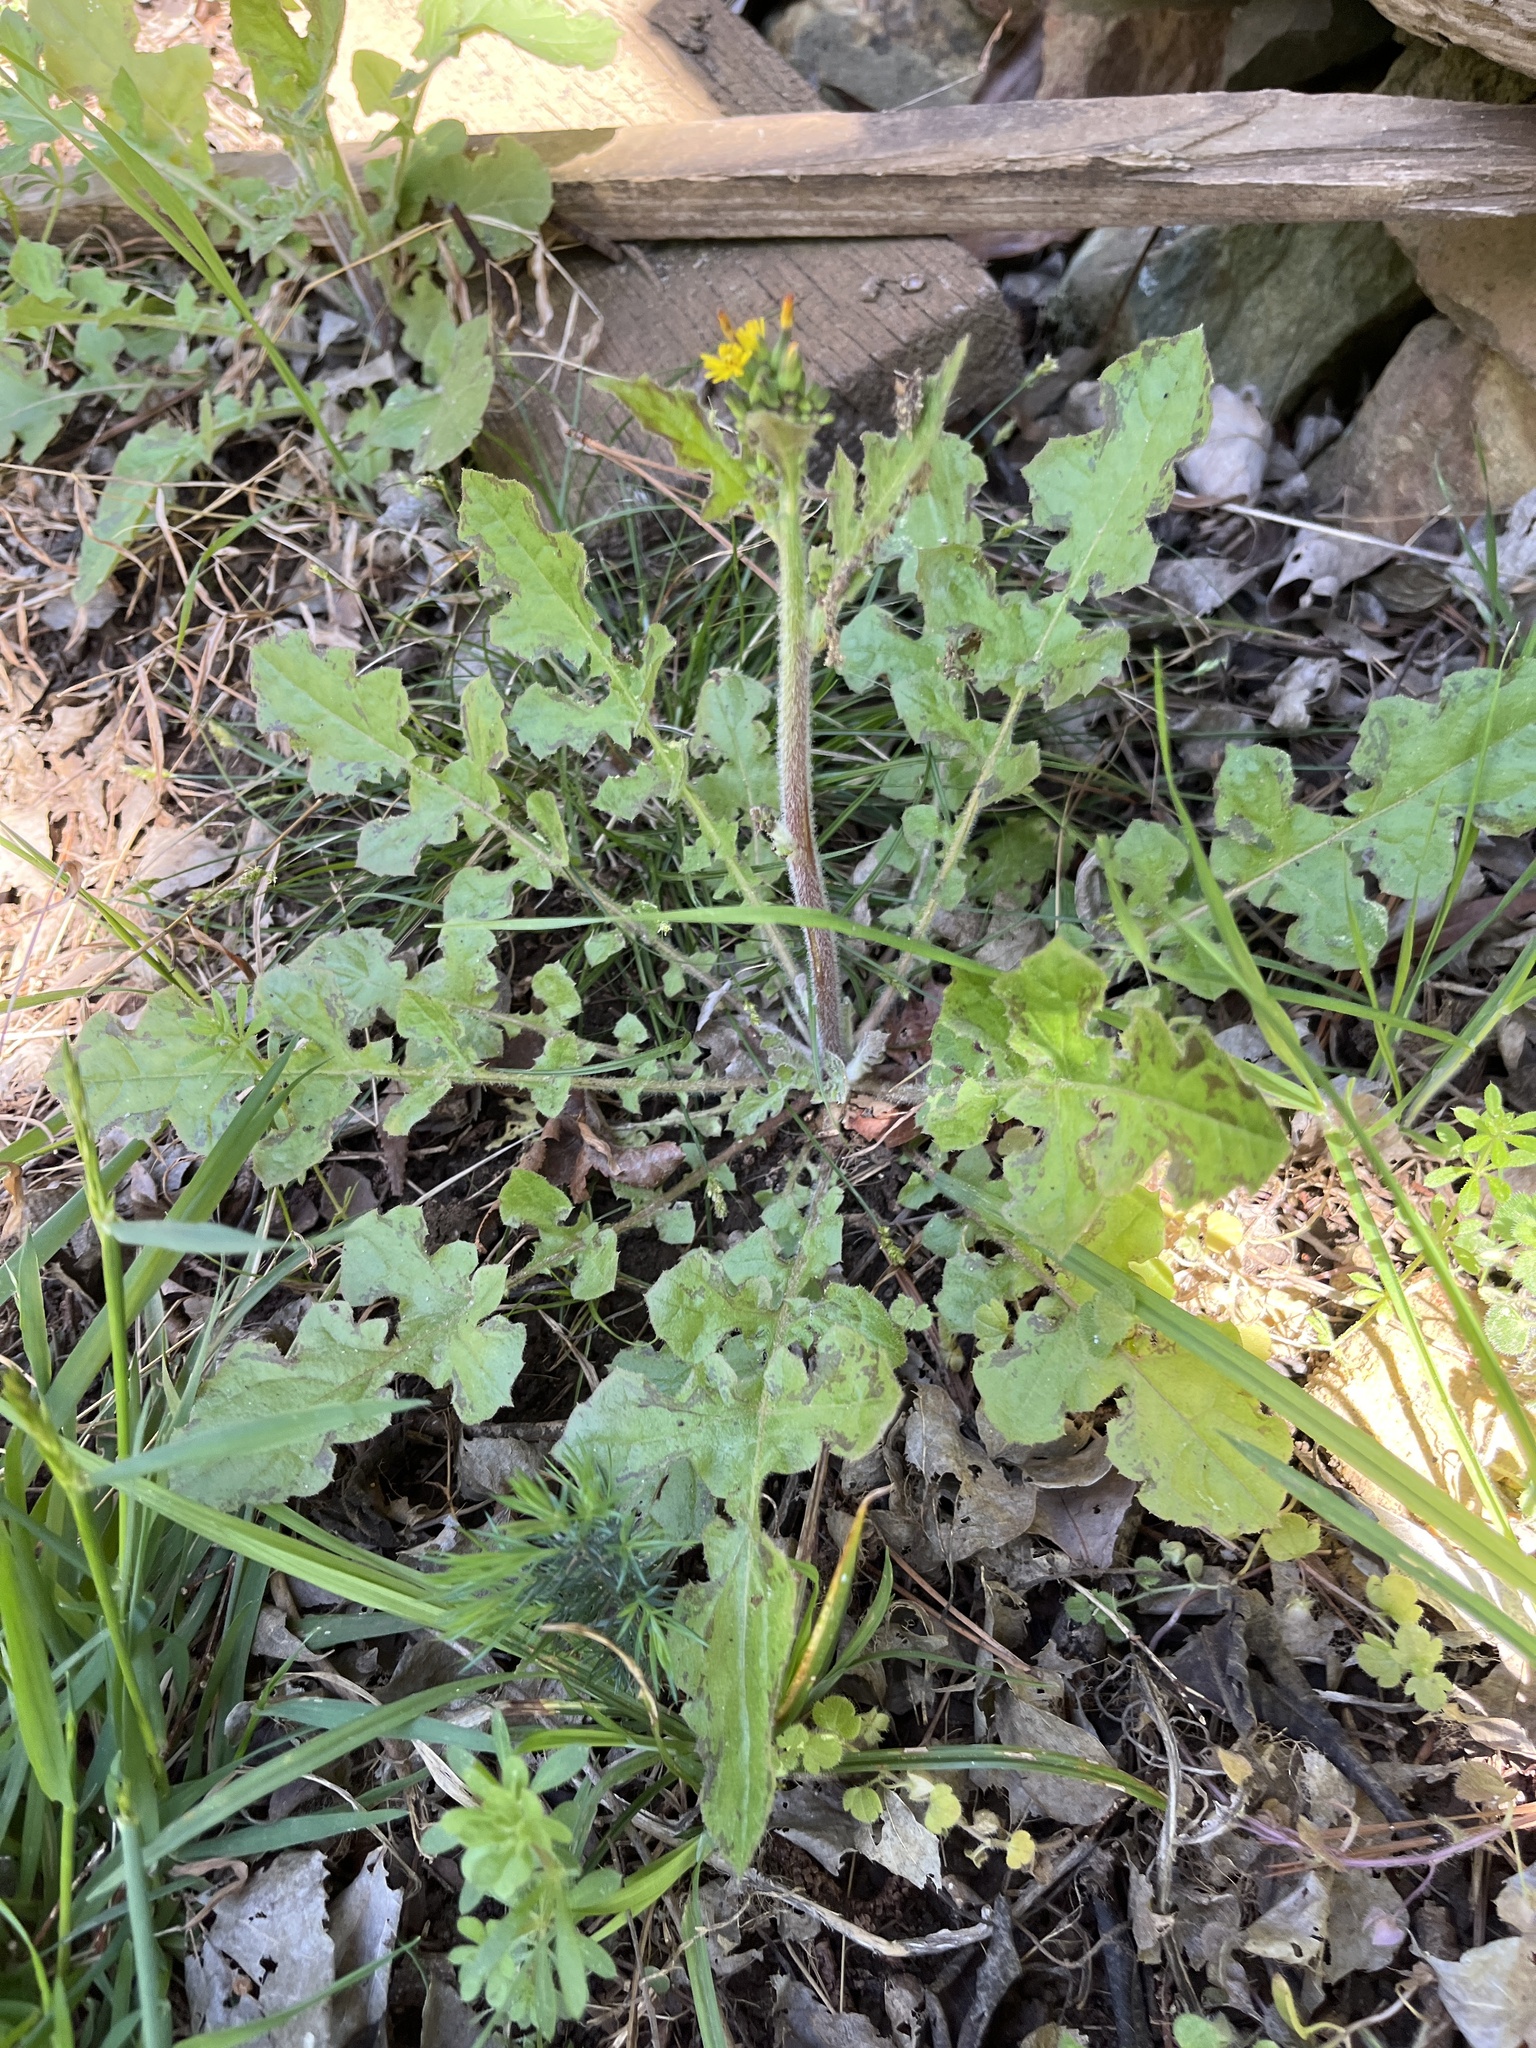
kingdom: Plantae
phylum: Tracheophyta
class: Magnoliopsida
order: Asterales
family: Asteraceae
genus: Youngia
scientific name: Youngia japonica
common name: Oriental false hawksbeard
